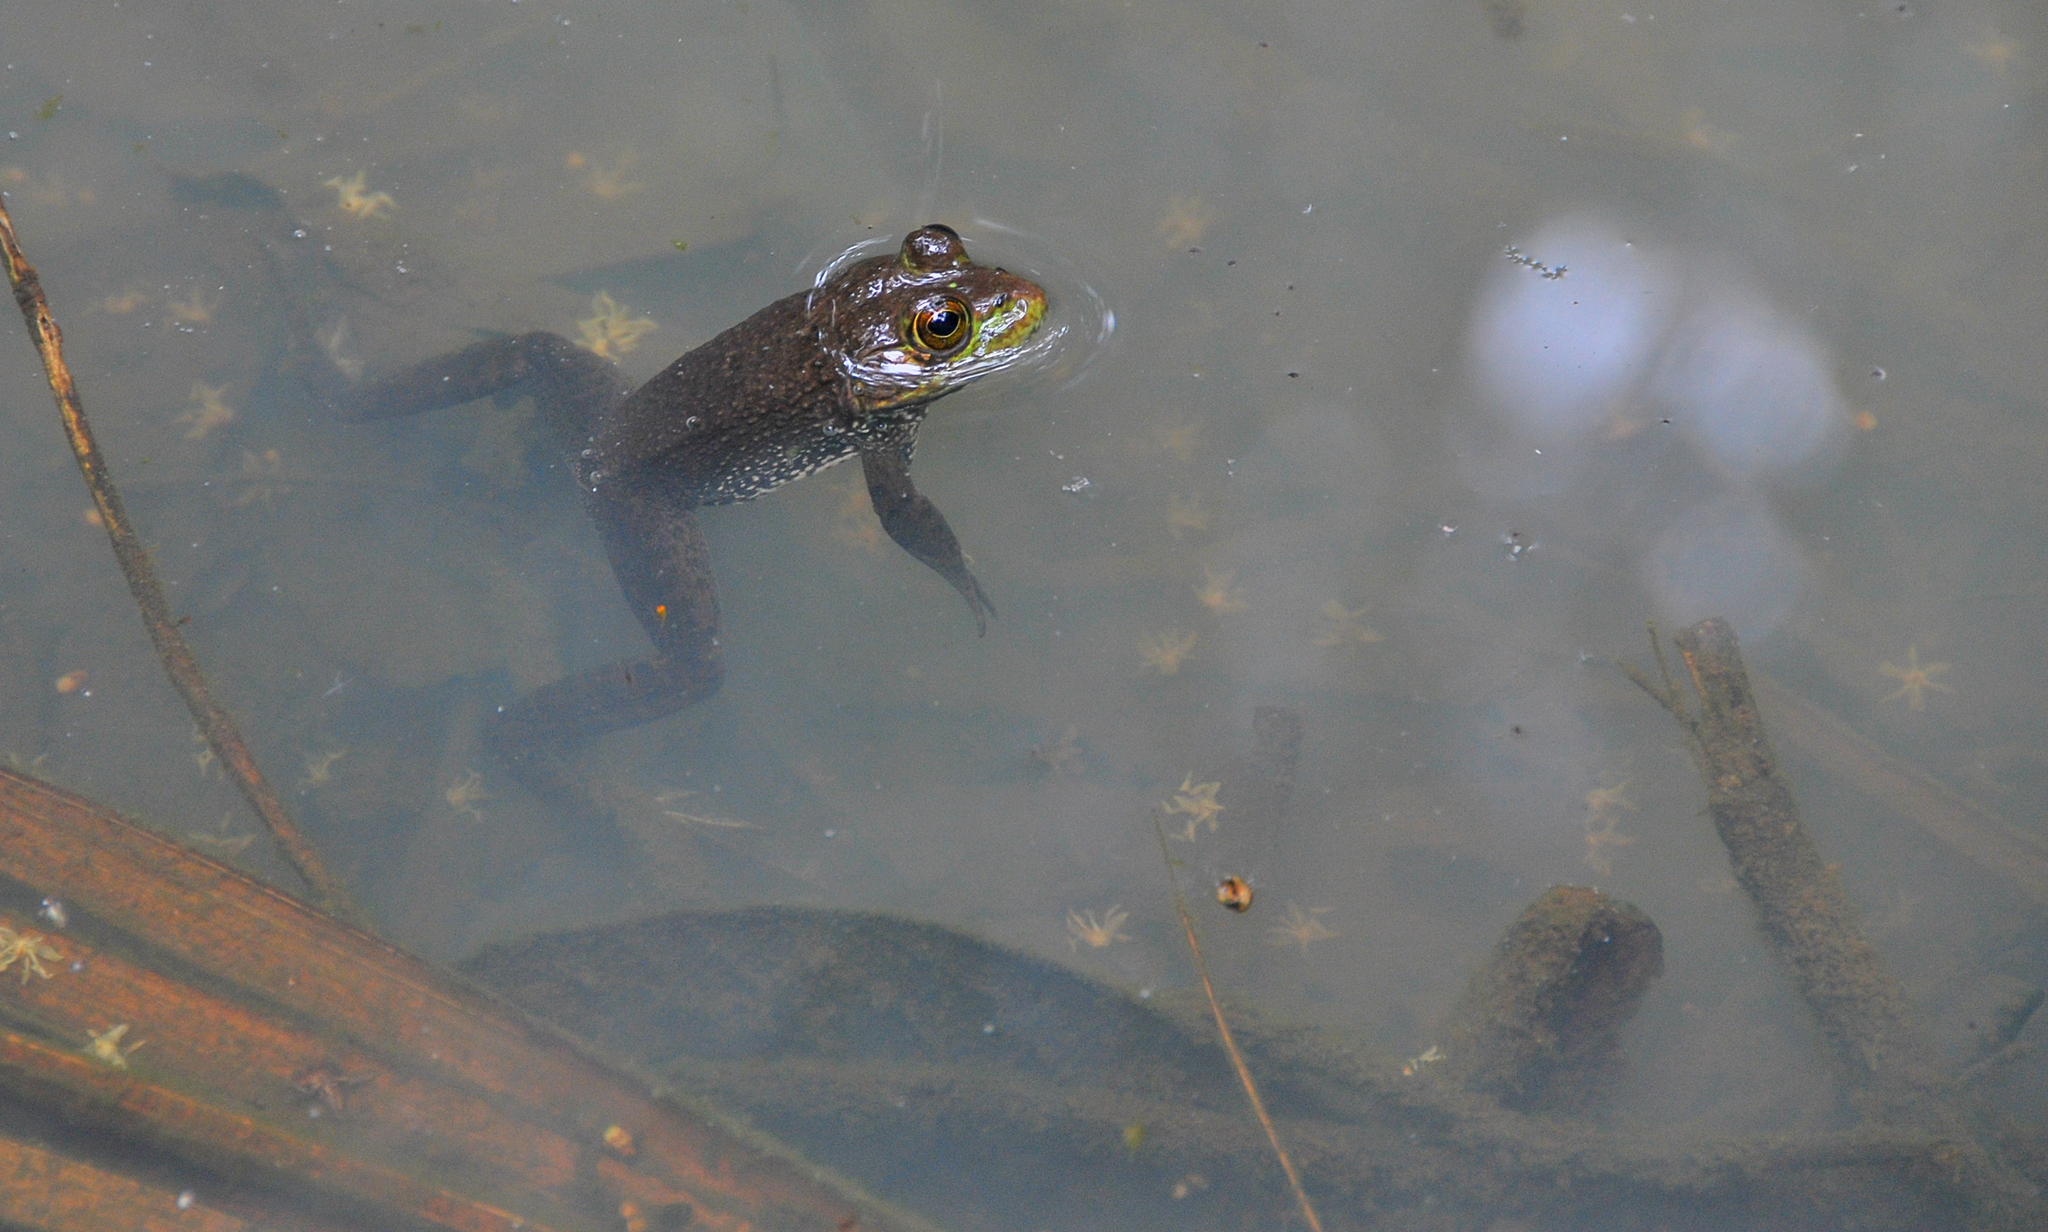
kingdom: Animalia
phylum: Chordata
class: Amphibia
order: Anura
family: Ranidae
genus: Lithobates
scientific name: Lithobates catesbeianus
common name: American bullfrog
